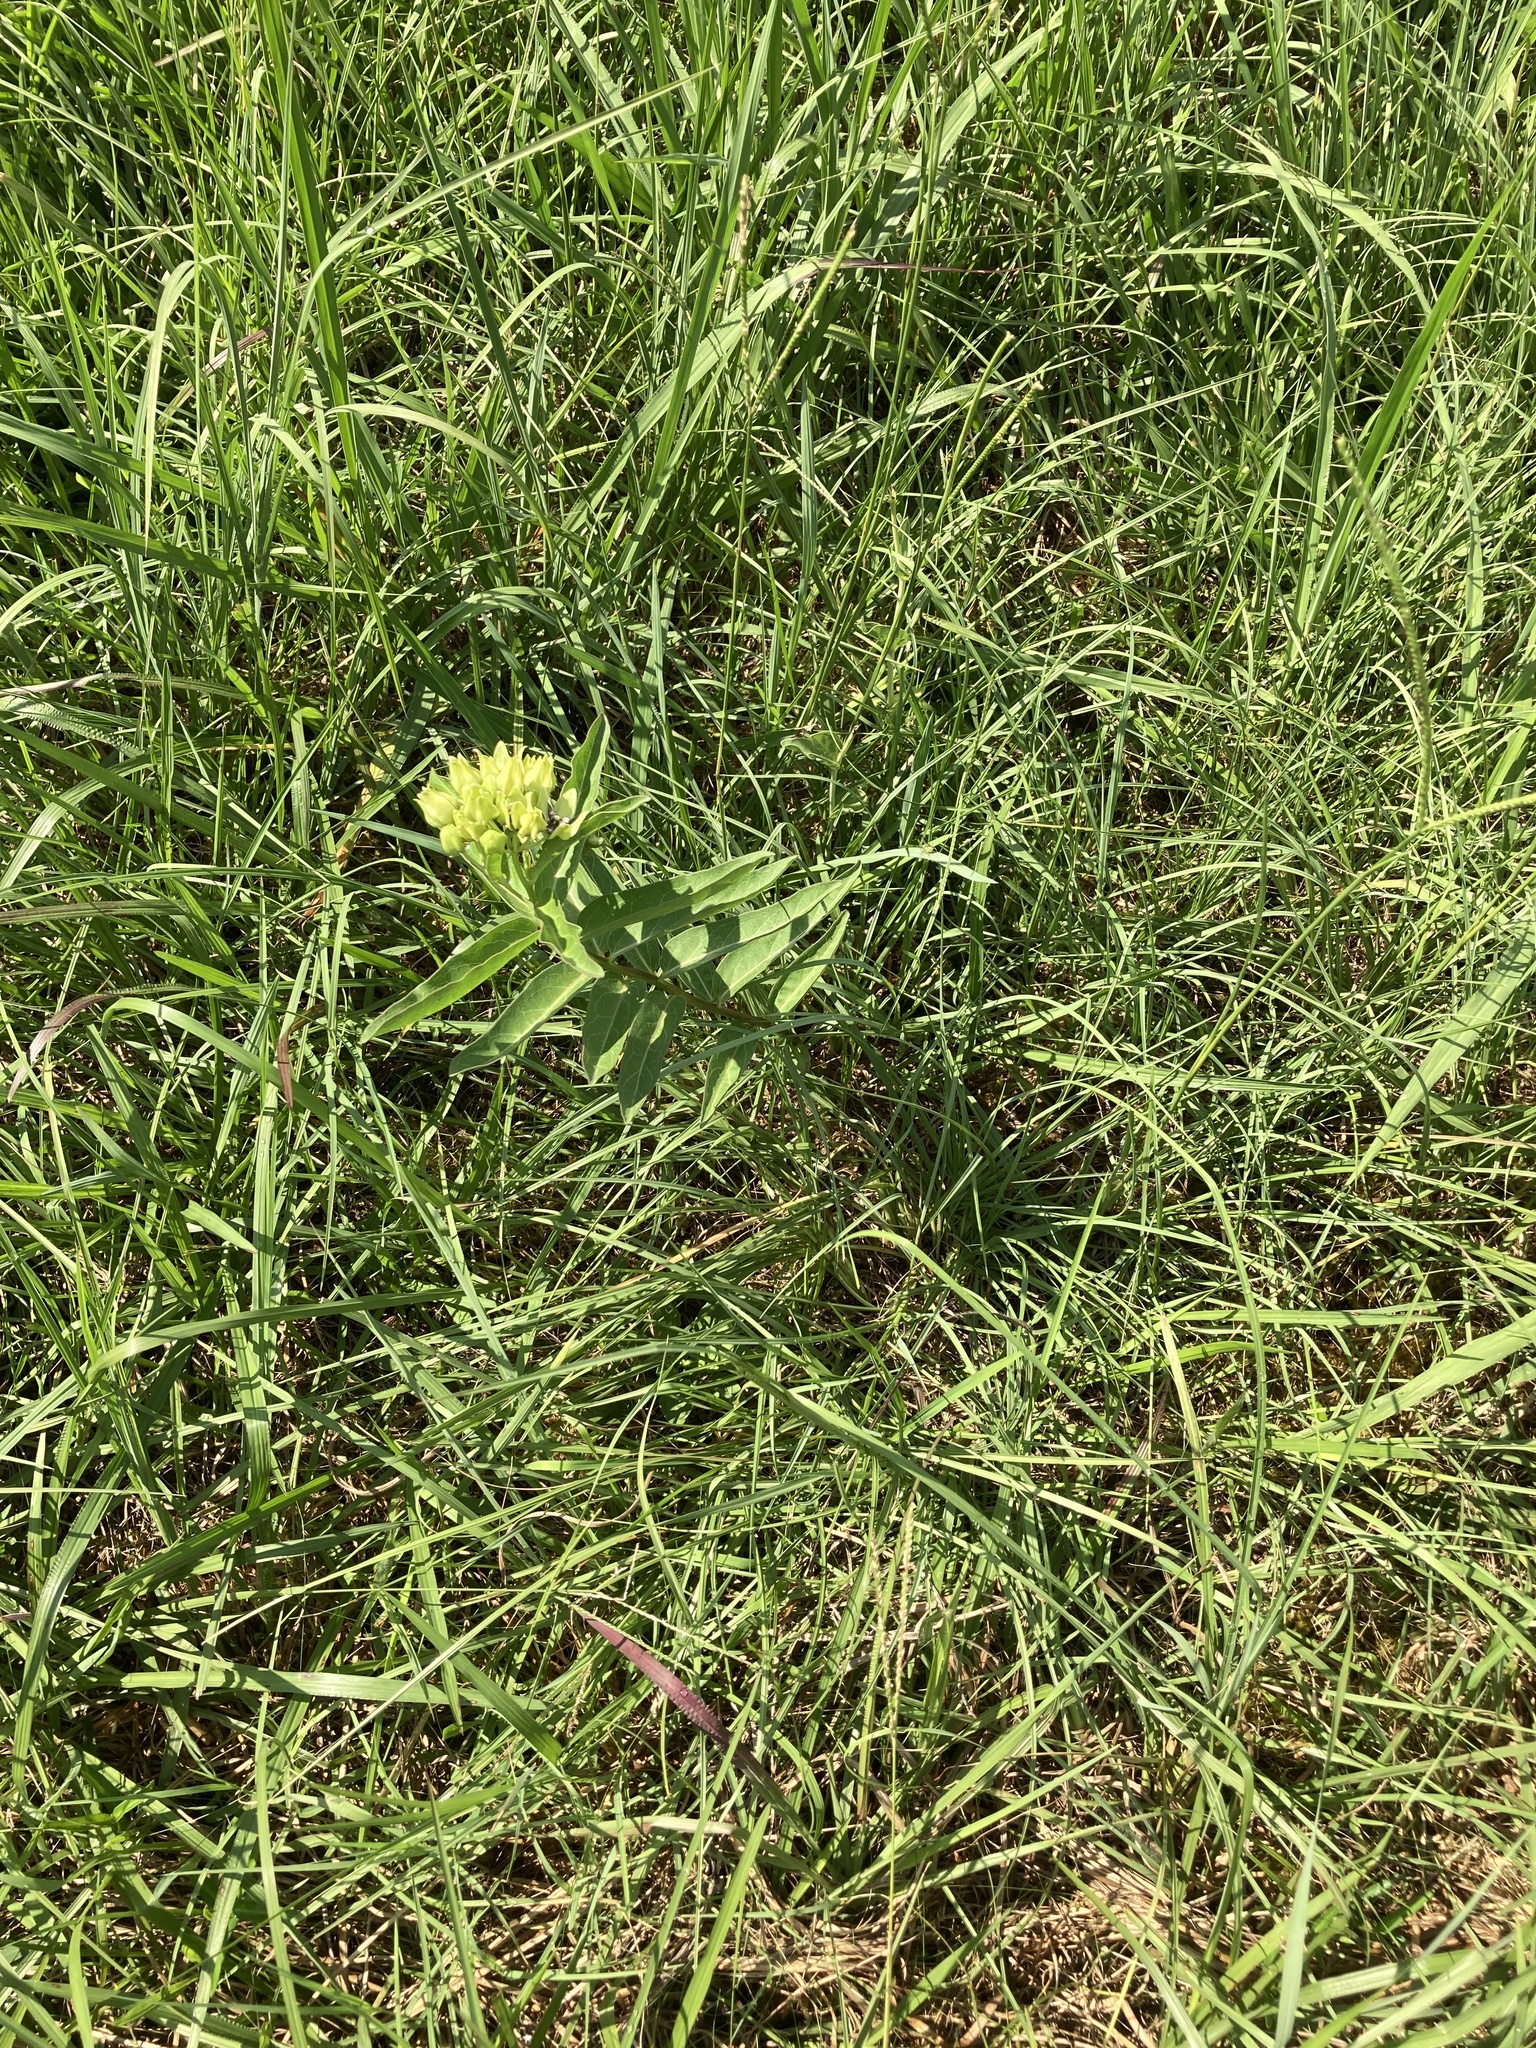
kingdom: Plantae
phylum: Tracheophyta
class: Magnoliopsida
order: Gentianales
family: Apocynaceae
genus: Asclepias
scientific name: Asclepias viridis
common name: Antelope-horns
